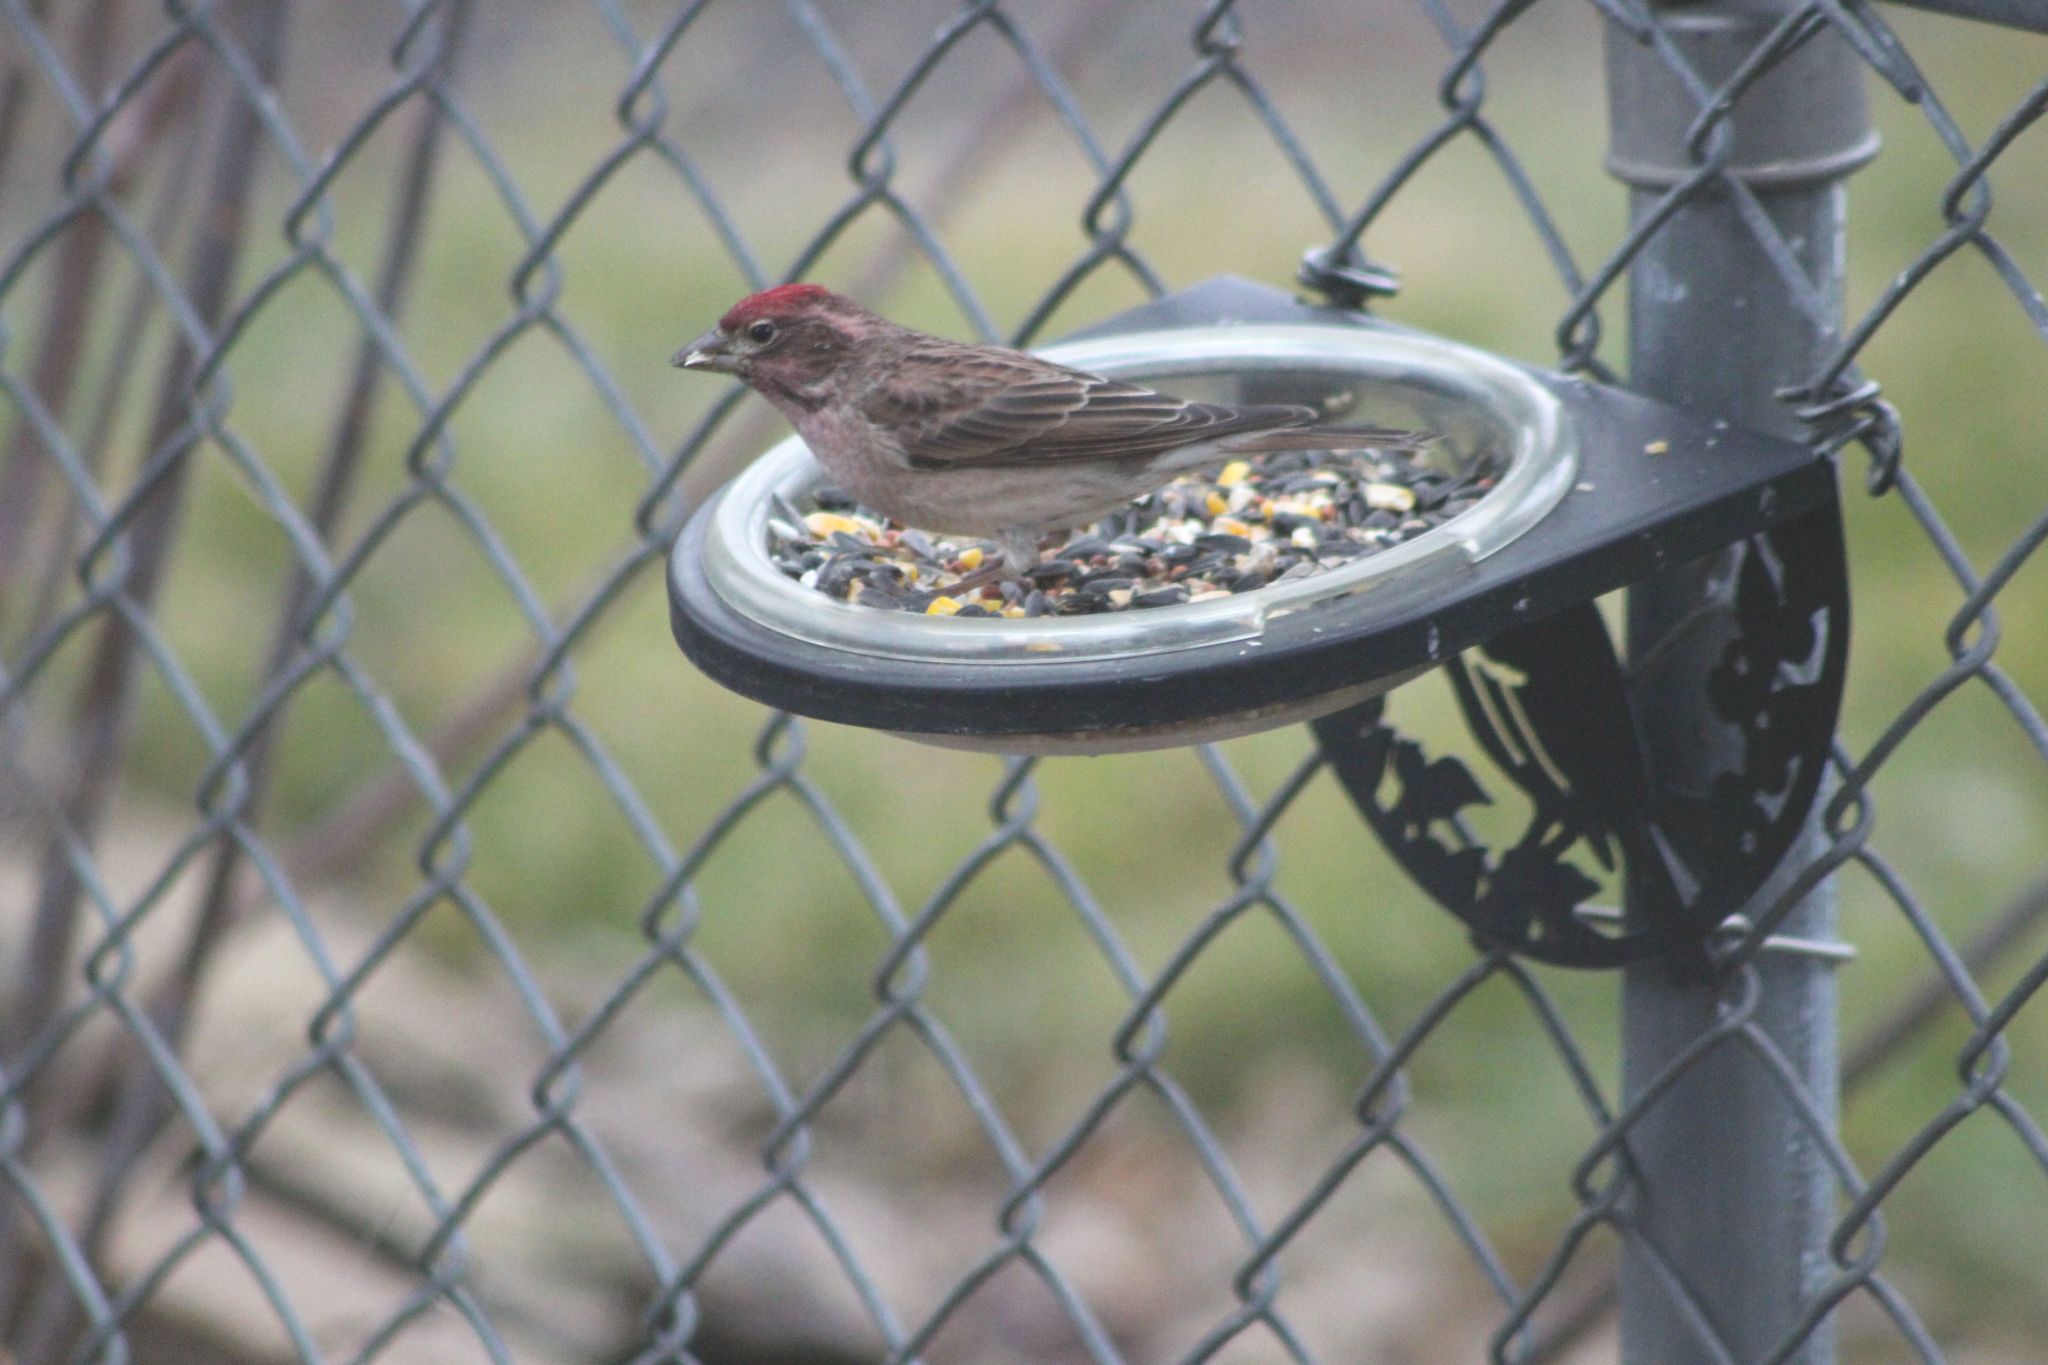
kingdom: Animalia
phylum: Chordata
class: Aves
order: Passeriformes
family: Fringillidae
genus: Haemorhous
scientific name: Haemorhous cassinii
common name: Cassin's finch
